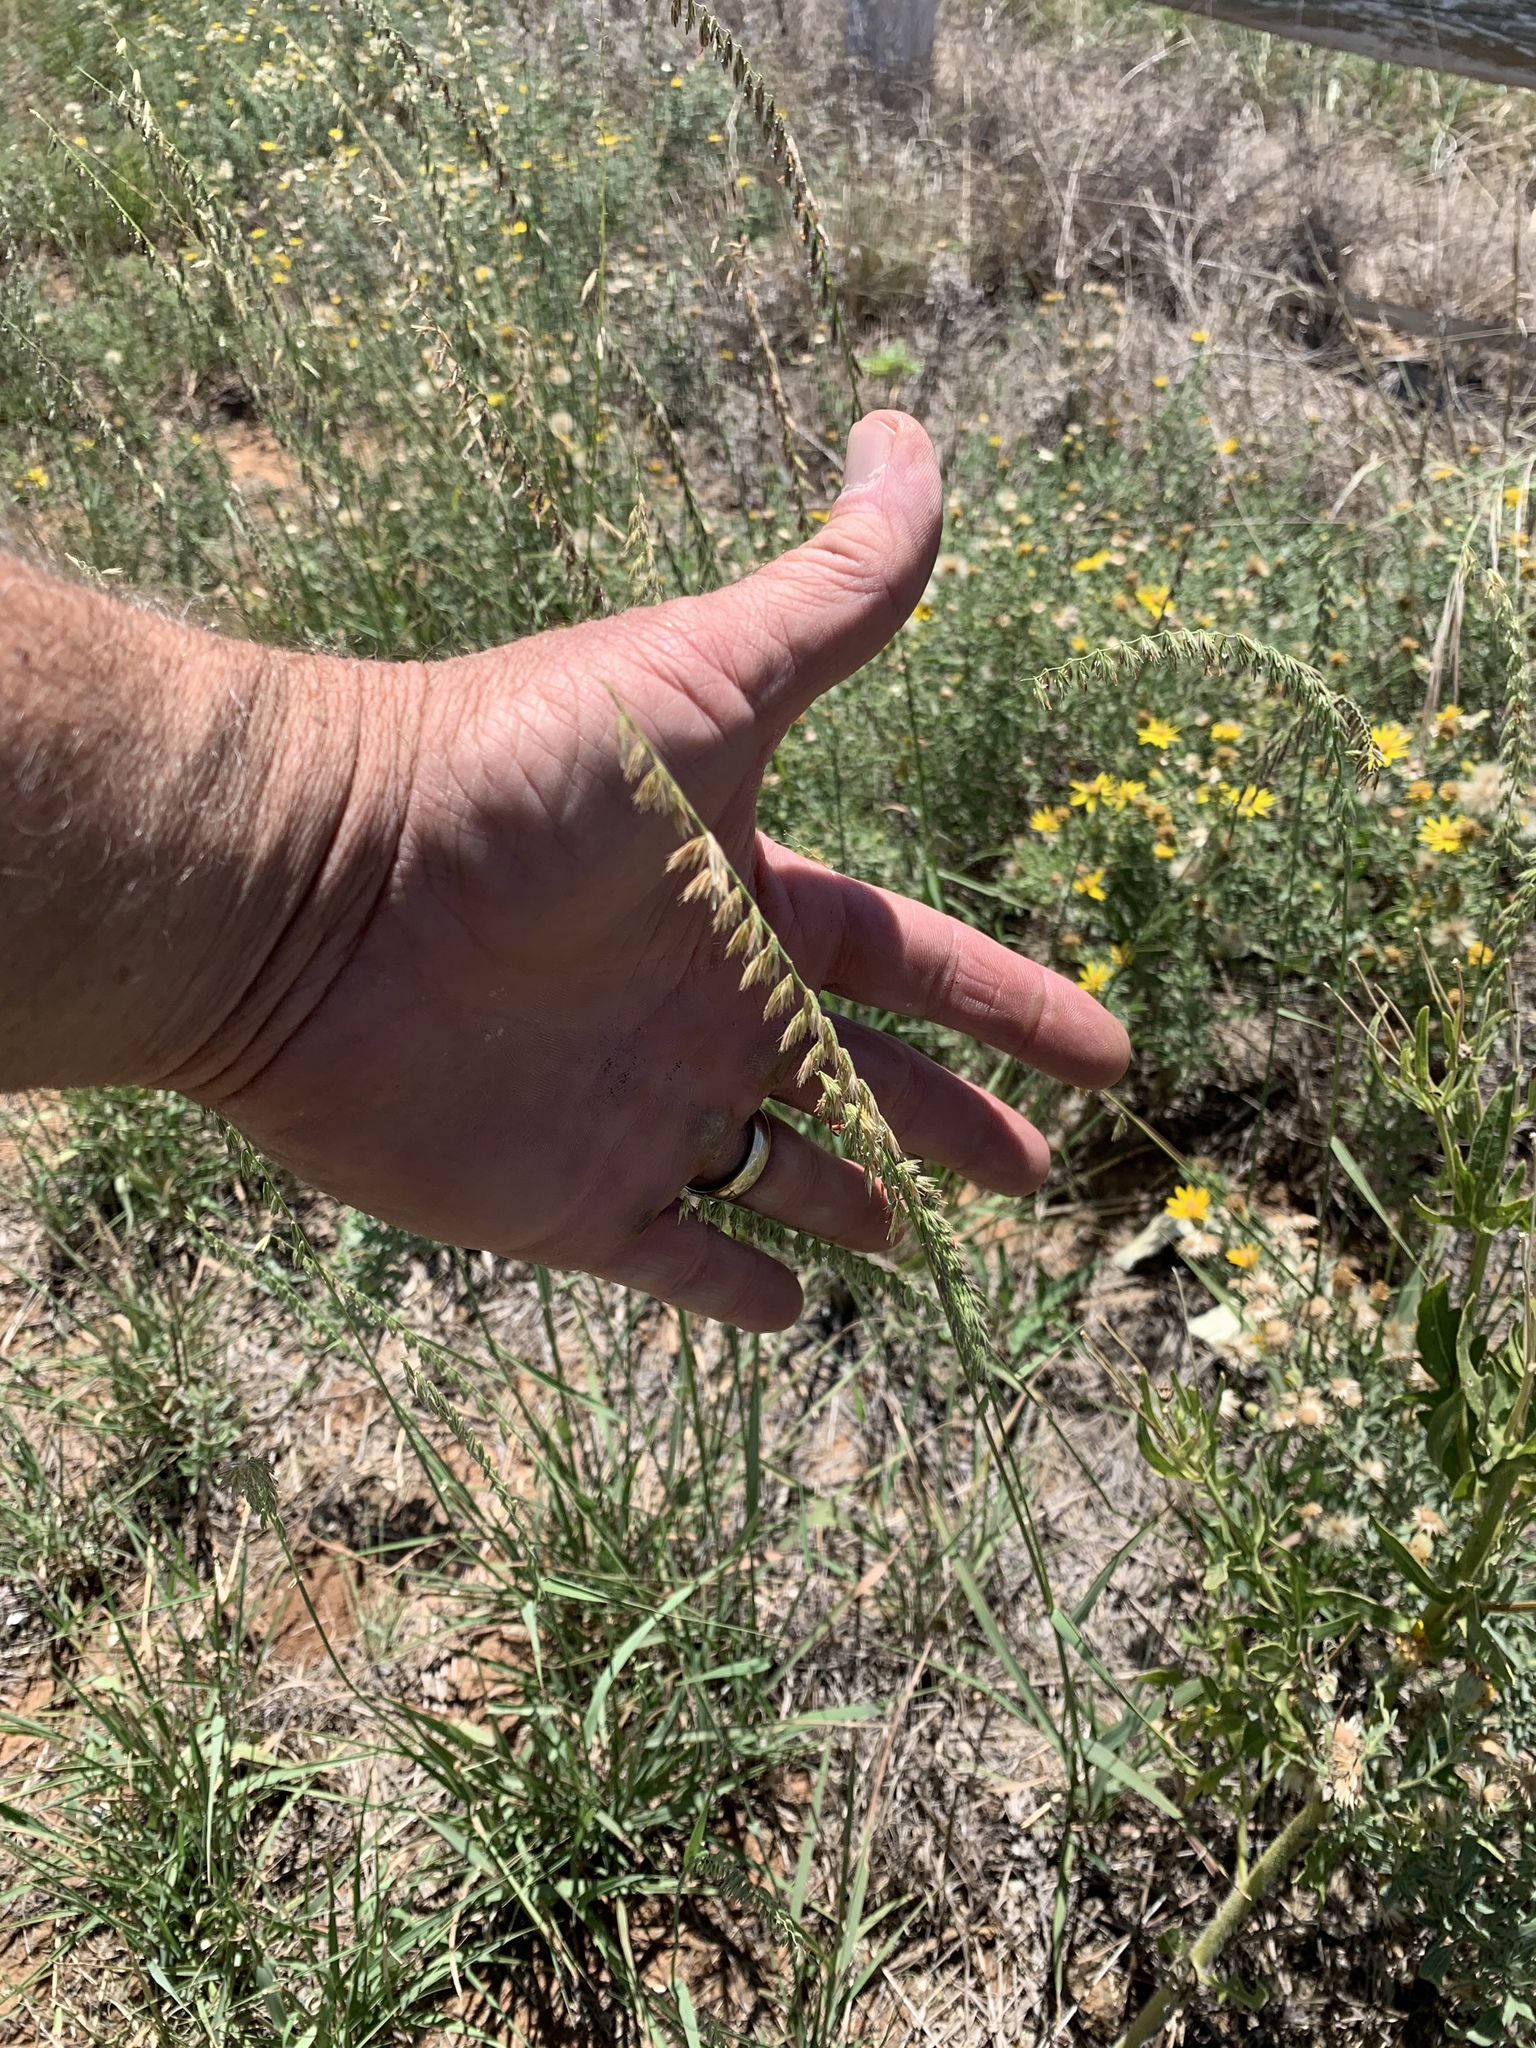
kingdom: Plantae
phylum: Tracheophyta
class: Liliopsida
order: Poales
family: Poaceae
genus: Bouteloua
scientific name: Bouteloua curtipendula
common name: Side-oats grama
